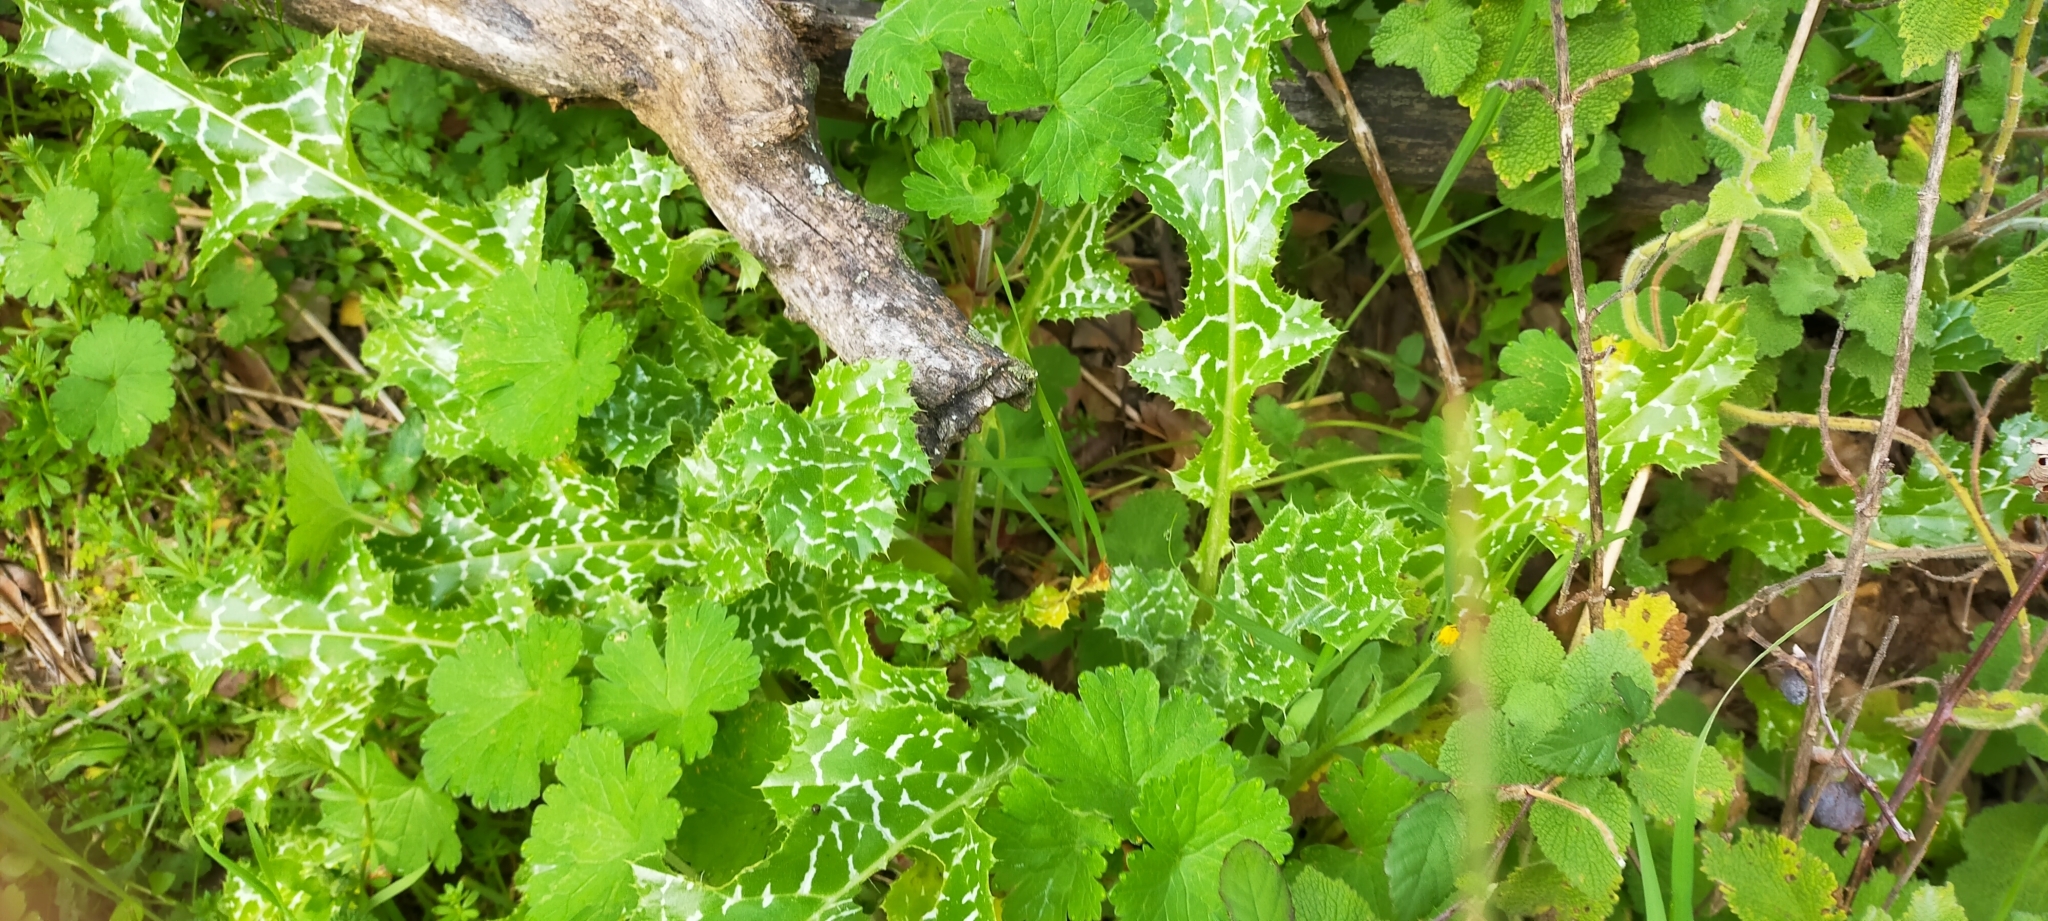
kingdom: Plantae
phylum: Tracheophyta
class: Magnoliopsida
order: Asterales
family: Asteraceae
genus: Silybum
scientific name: Silybum marianum
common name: Milk thistle
